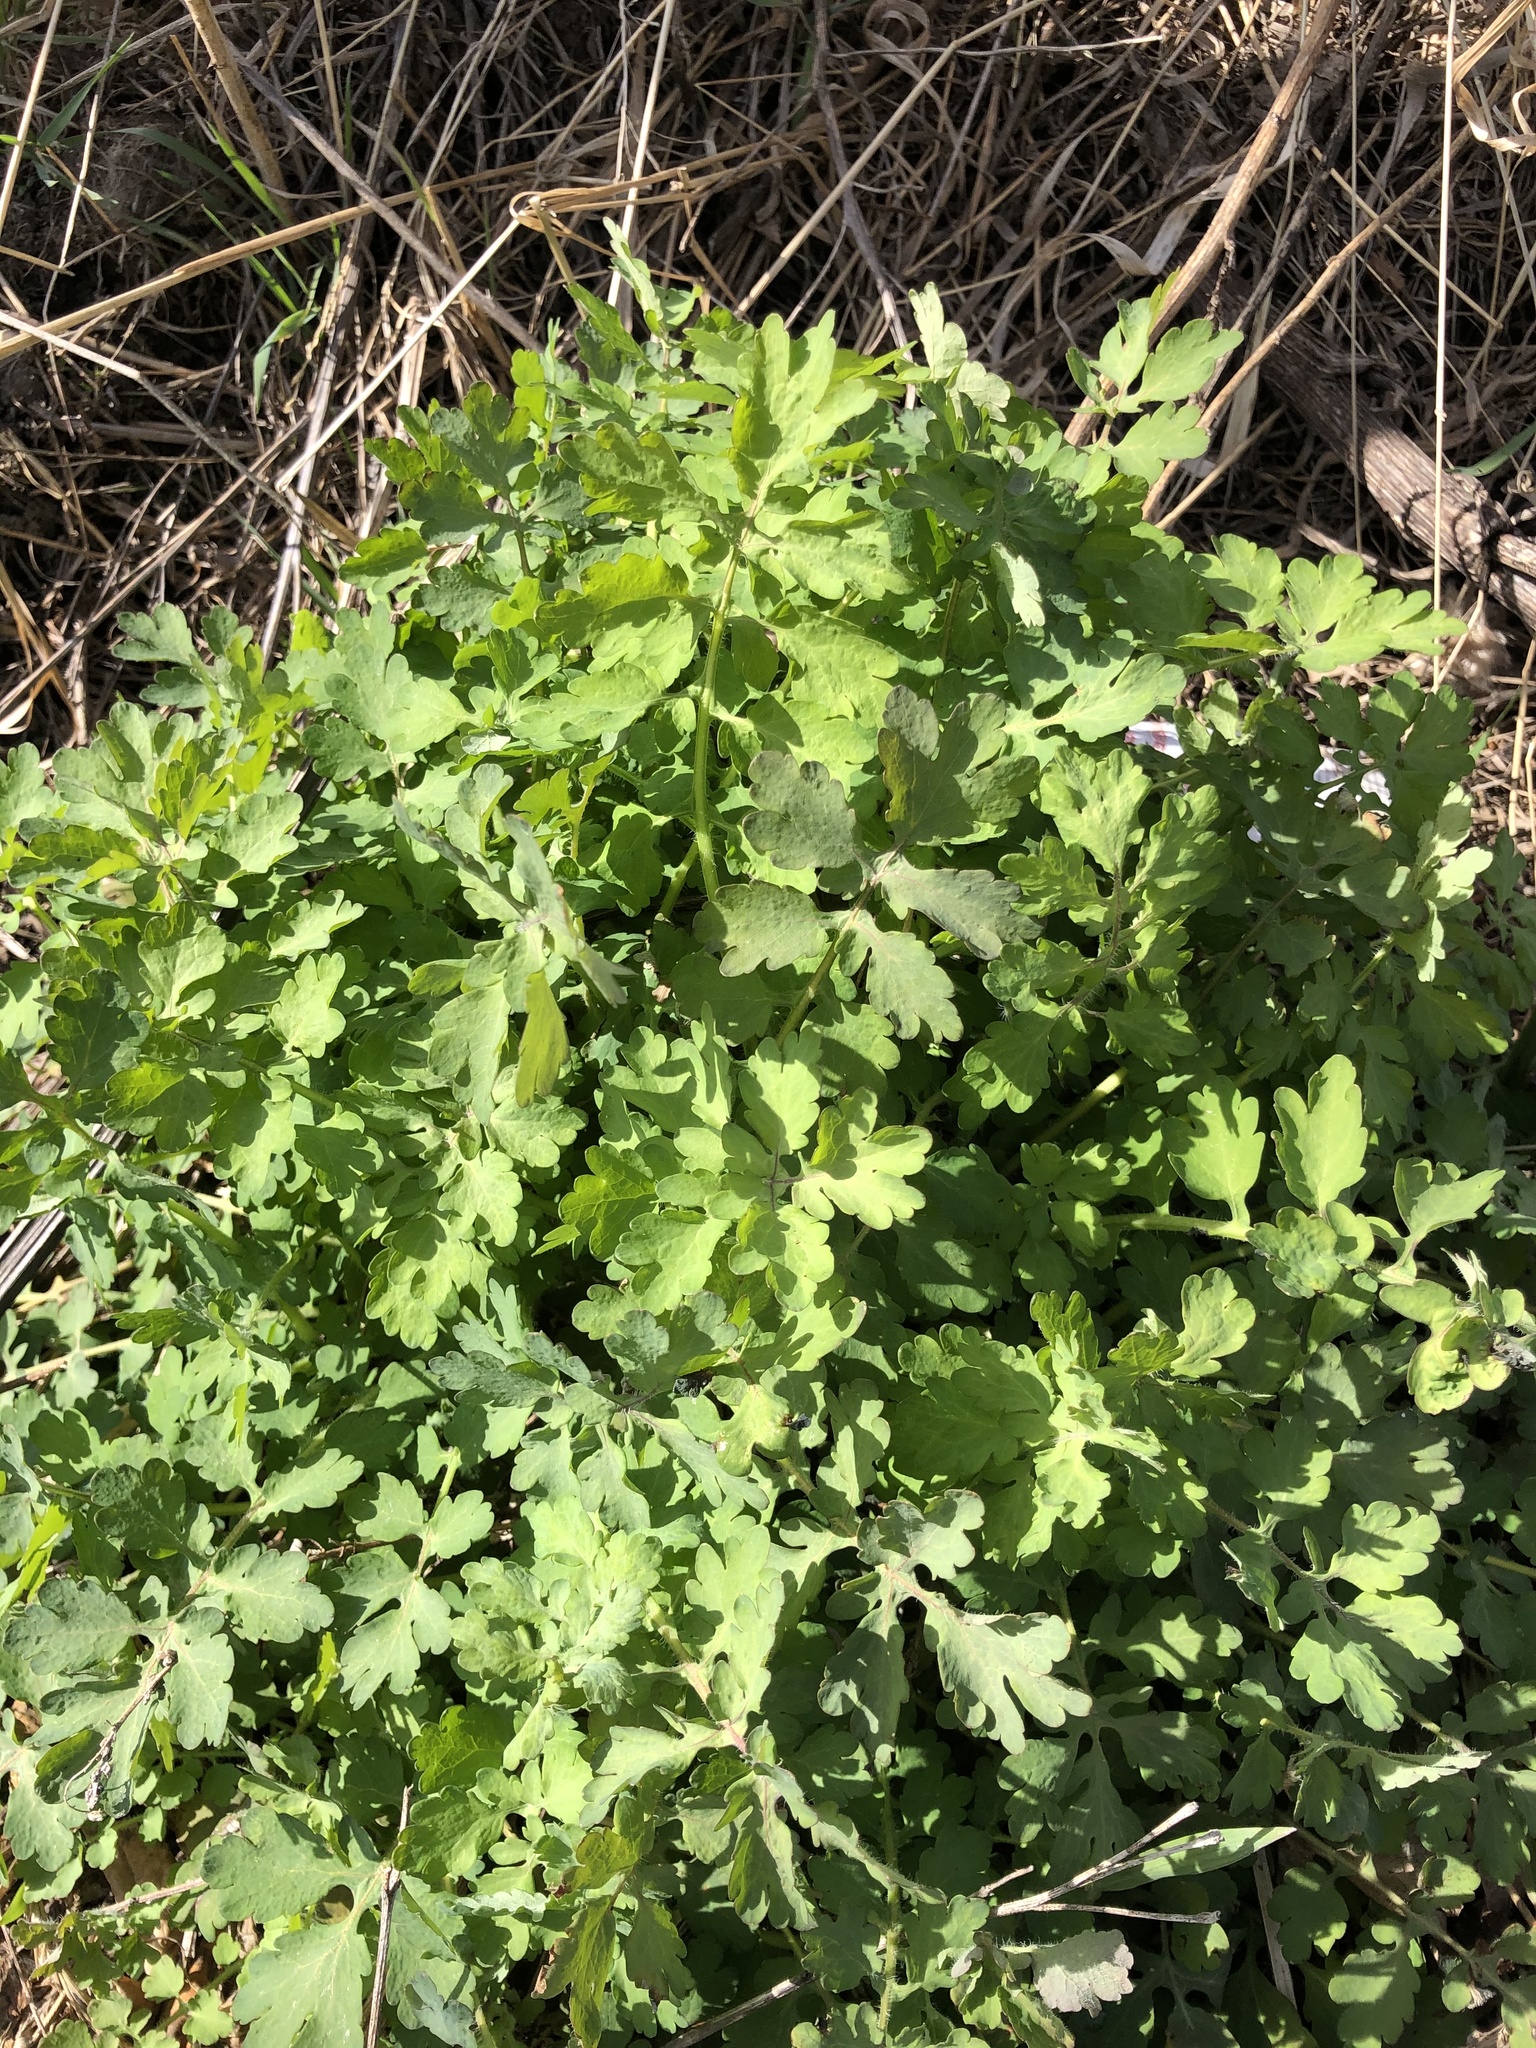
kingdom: Plantae
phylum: Tracheophyta
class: Magnoliopsida
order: Ranunculales
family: Papaveraceae
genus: Chelidonium
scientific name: Chelidonium majus
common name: Greater celandine
